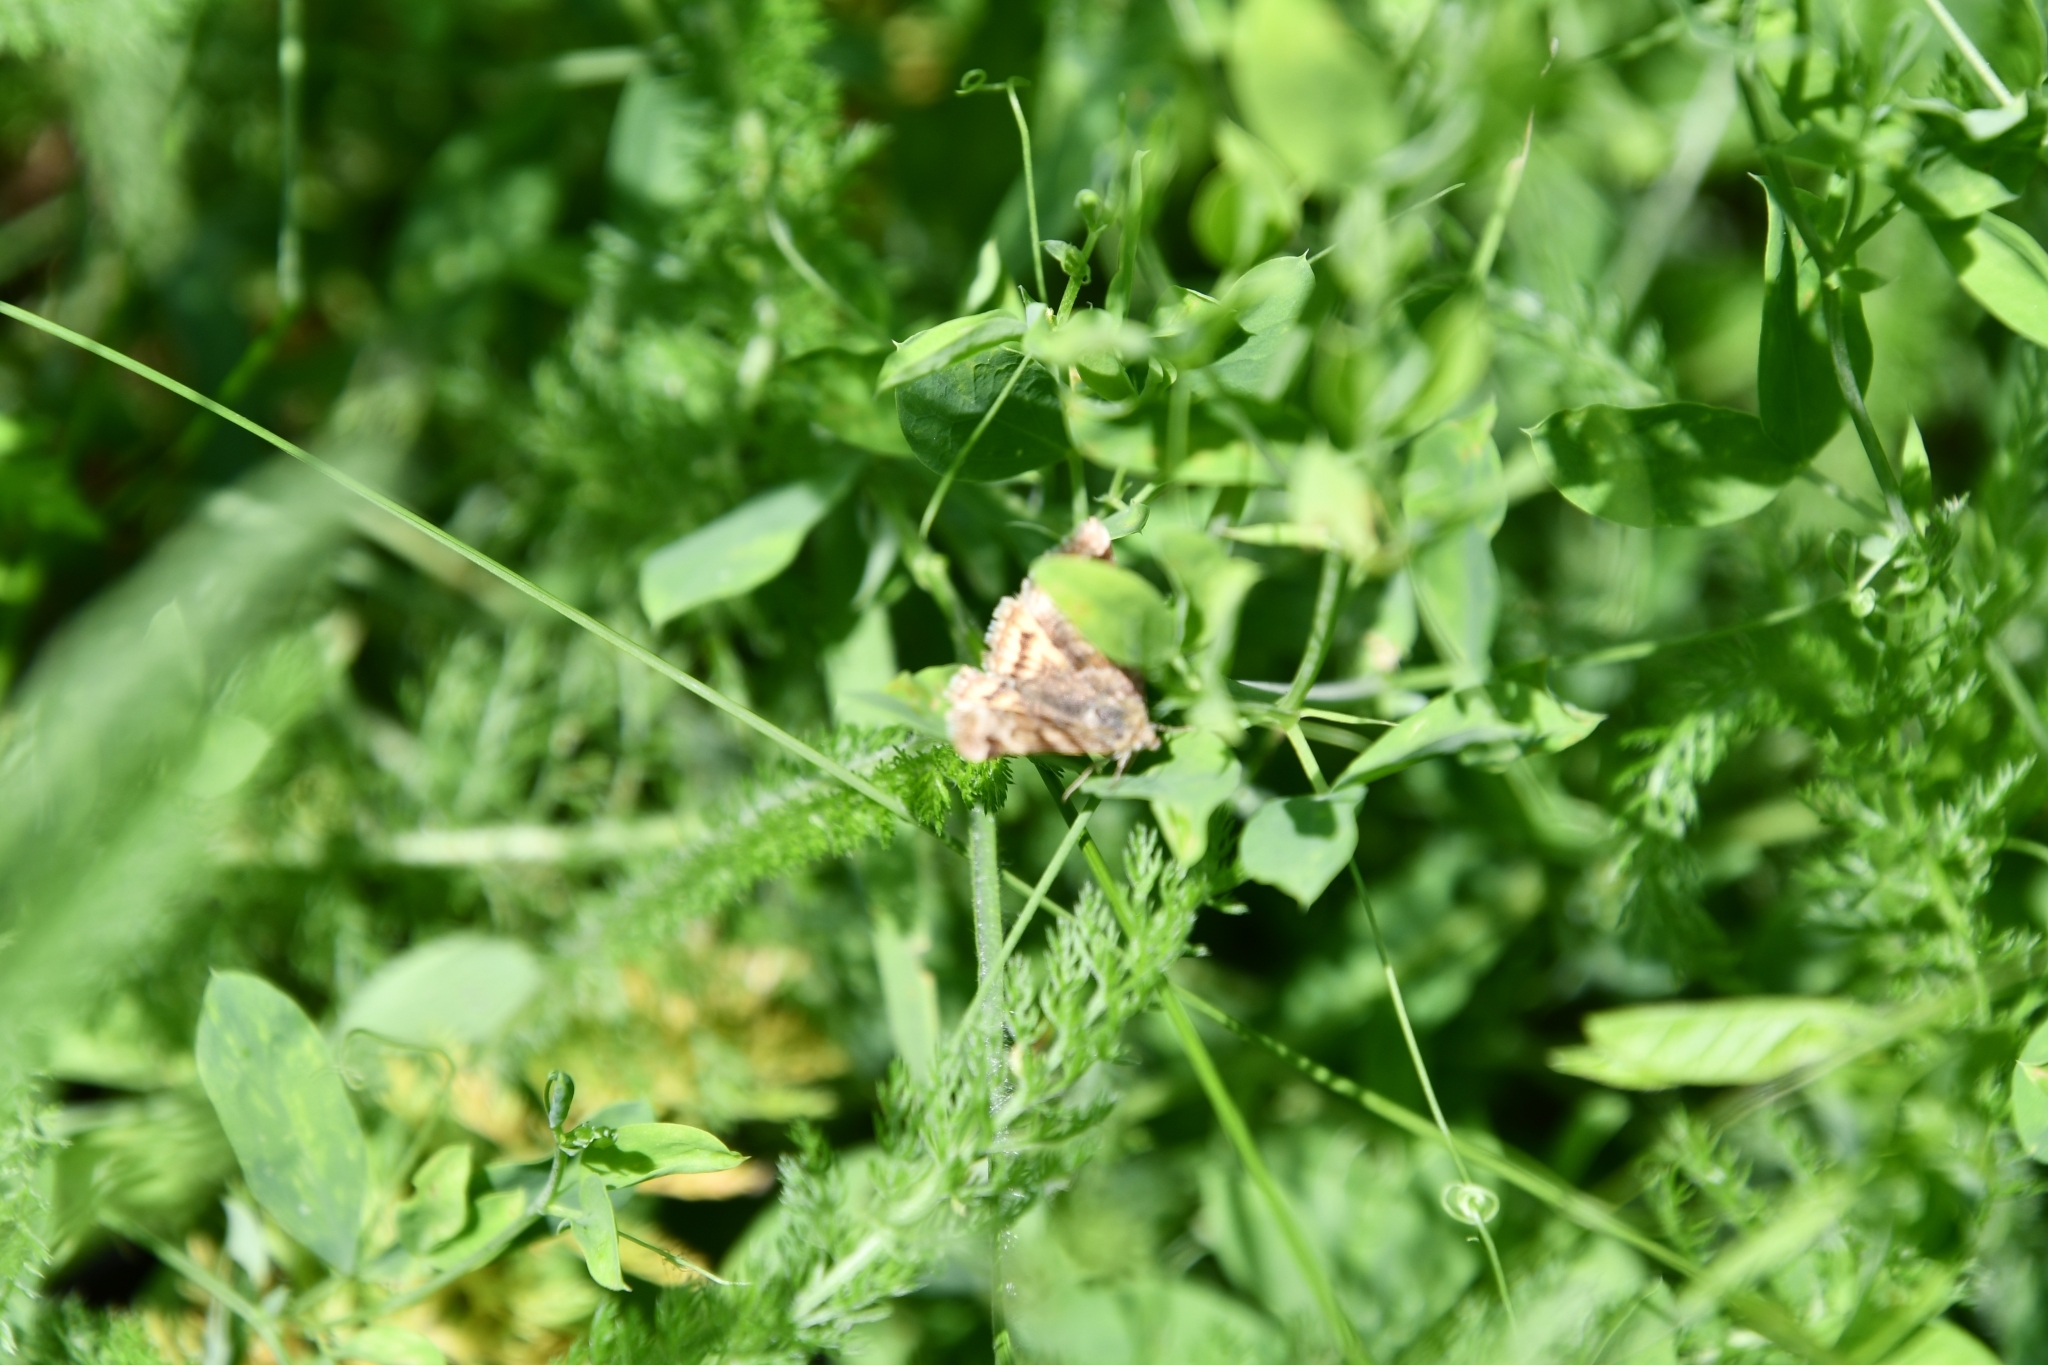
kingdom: Animalia
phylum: Arthropoda
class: Insecta
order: Lepidoptera
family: Erebidae
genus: Euclidia
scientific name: Euclidia glyphica
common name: Burnet companion
